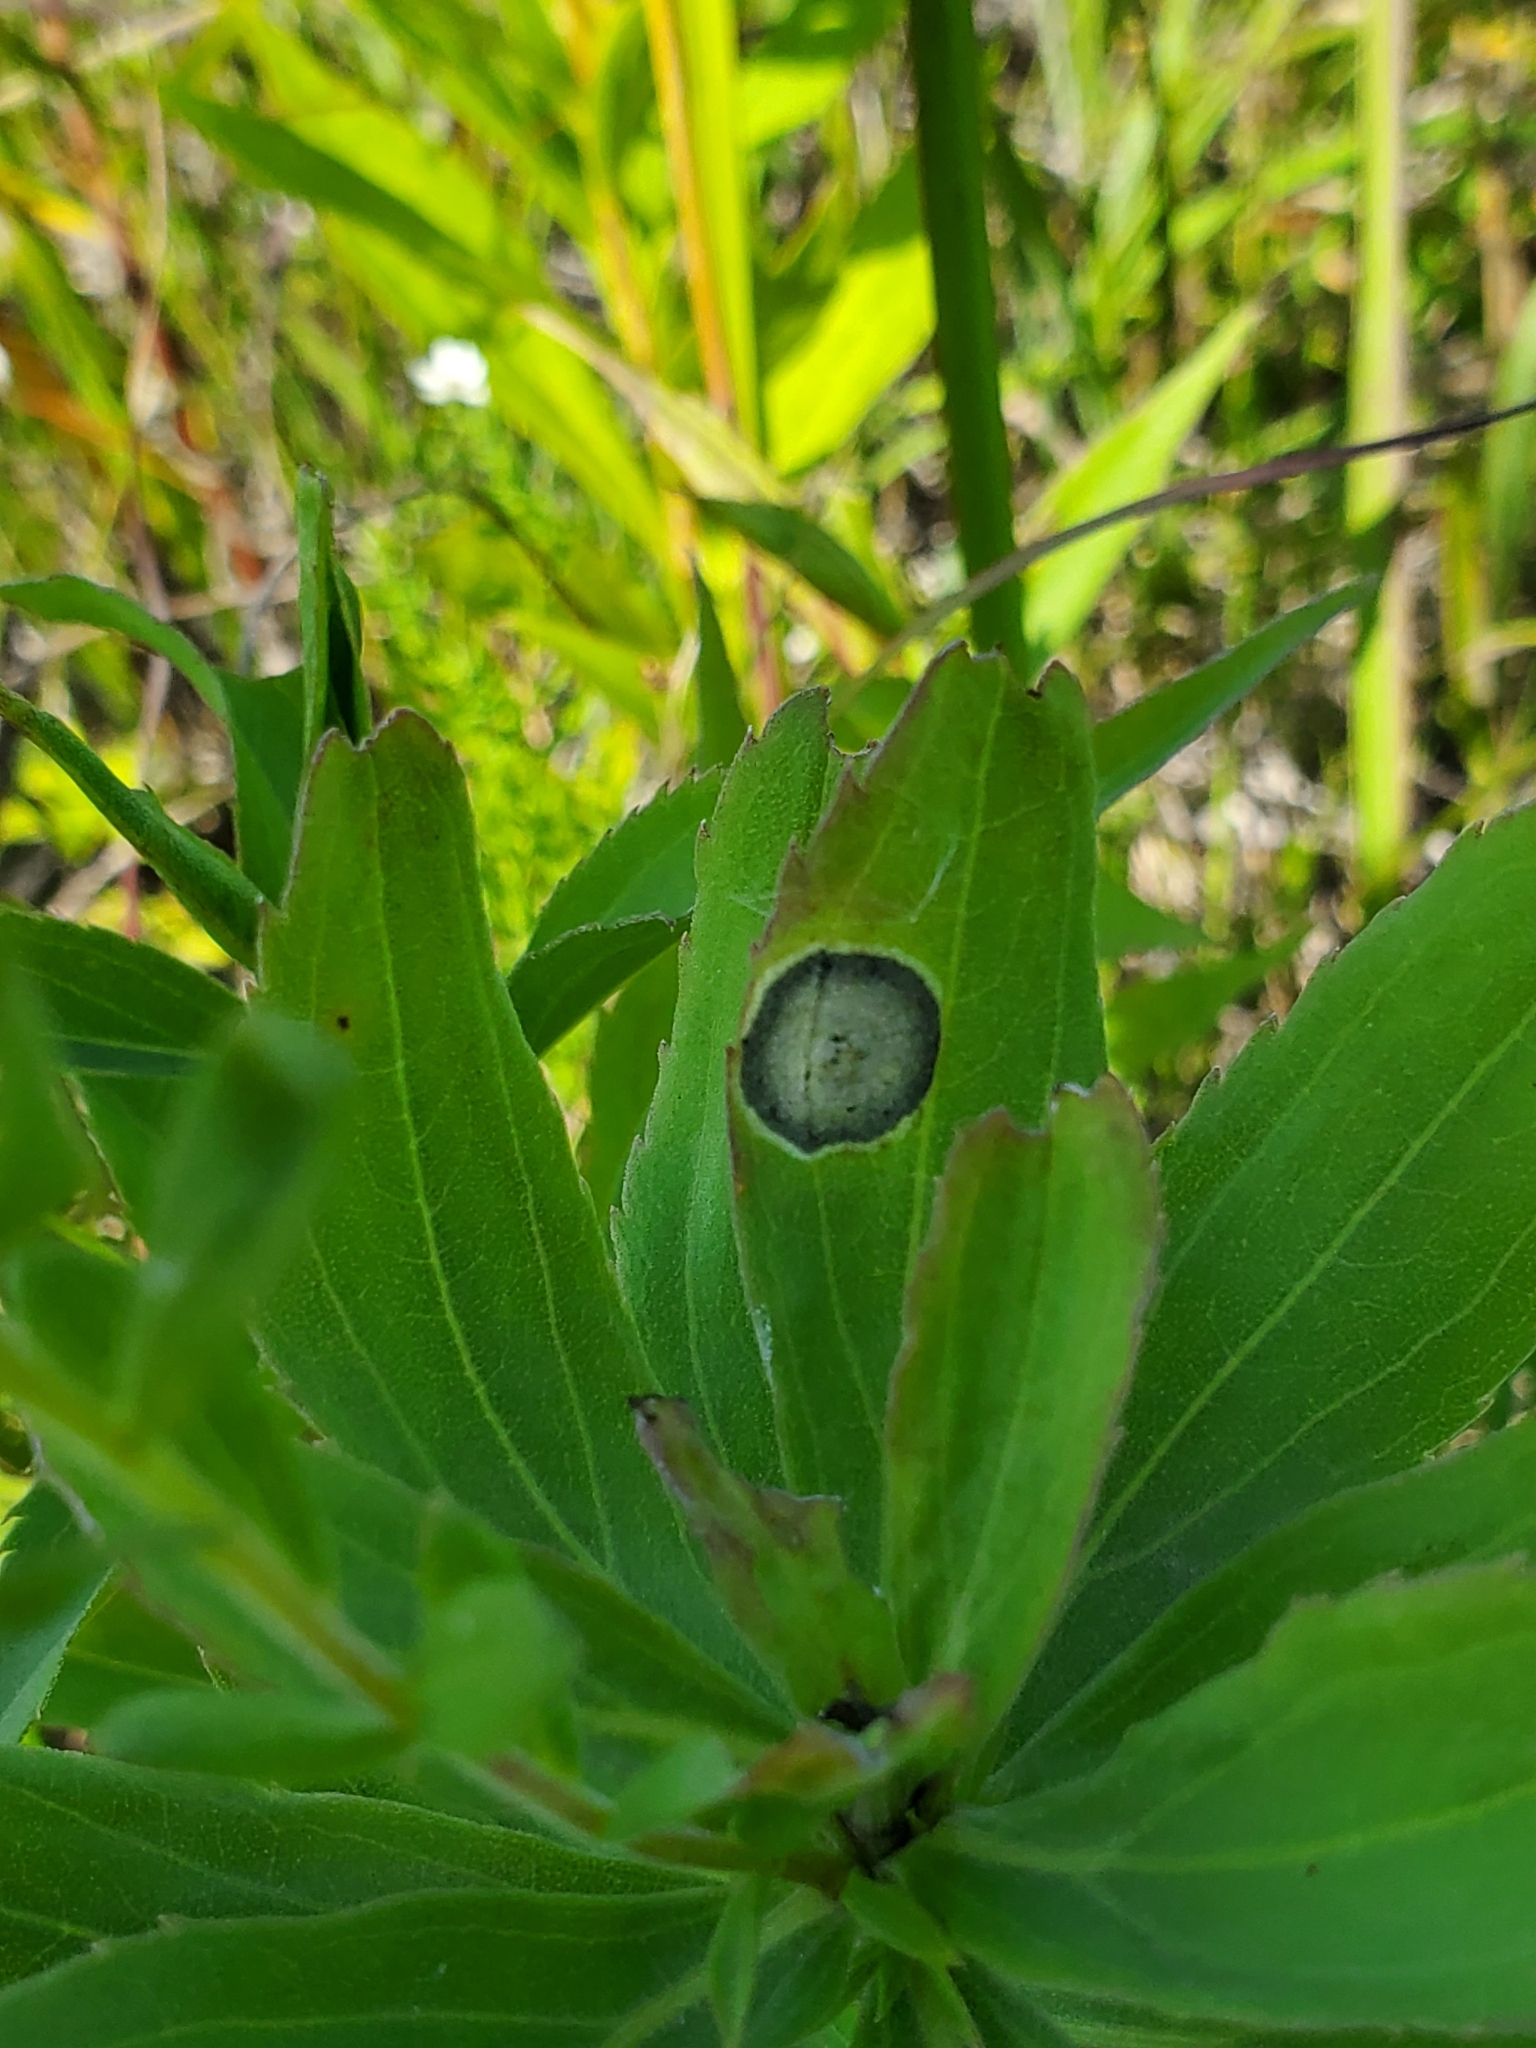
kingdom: Animalia
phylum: Arthropoda
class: Insecta
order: Diptera
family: Cecidomyiidae
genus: Asteromyia
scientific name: Asteromyia carbonifera
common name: Carbonifera goldenrod gall midge
